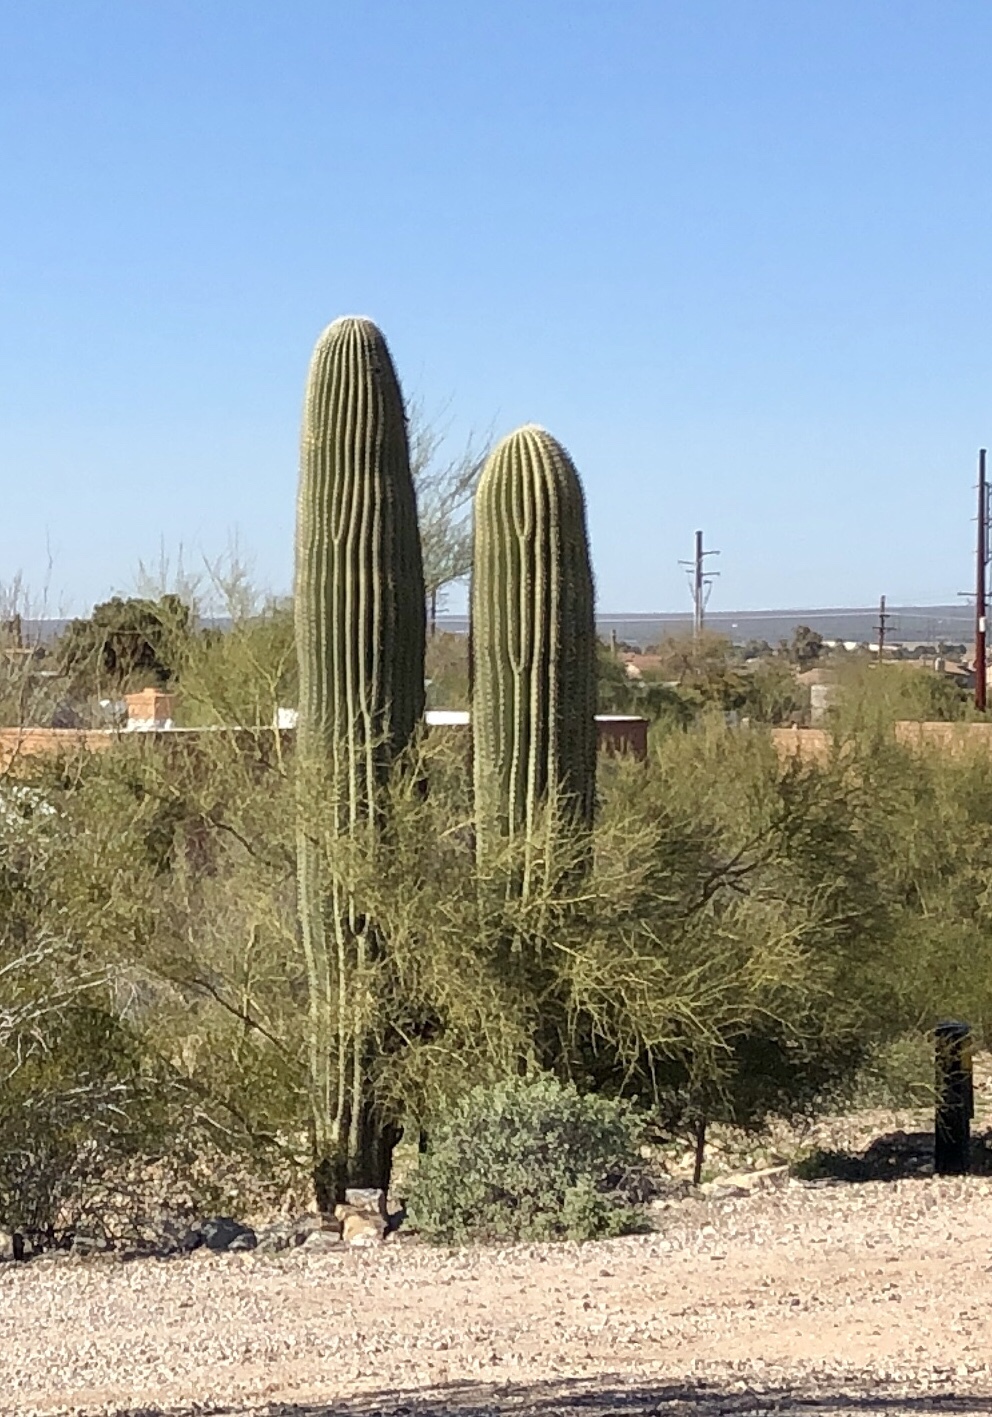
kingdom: Plantae
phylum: Tracheophyta
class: Magnoliopsida
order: Caryophyllales
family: Cactaceae
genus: Carnegiea
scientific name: Carnegiea gigantea
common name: Saguaro
